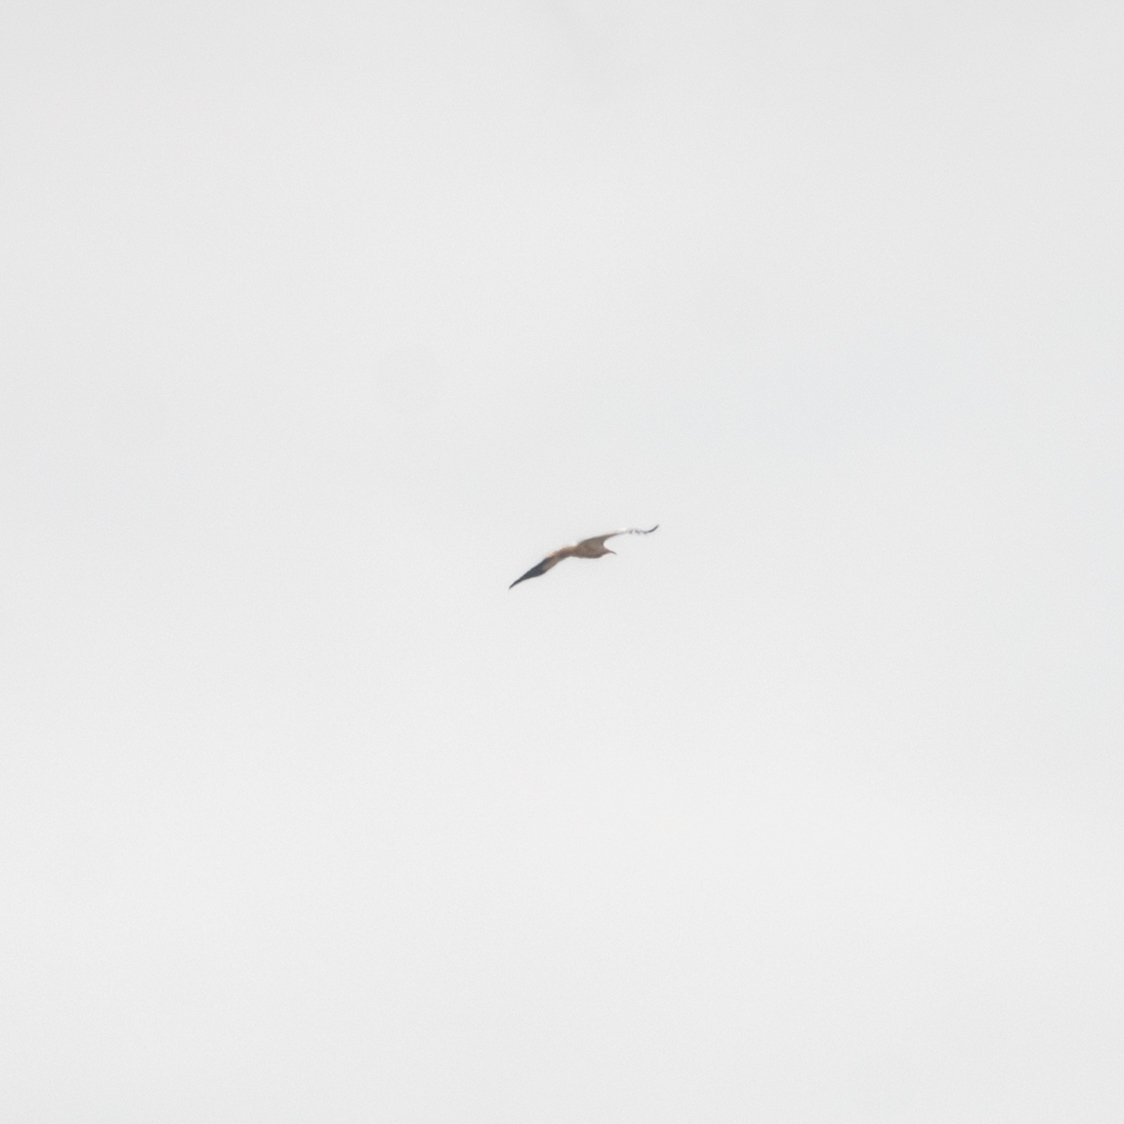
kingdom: Animalia
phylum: Chordata
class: Aves
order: Accipitriformes
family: Accipitridae
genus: Neophron
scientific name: Neophron percnopterus
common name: Egyptian vulture
